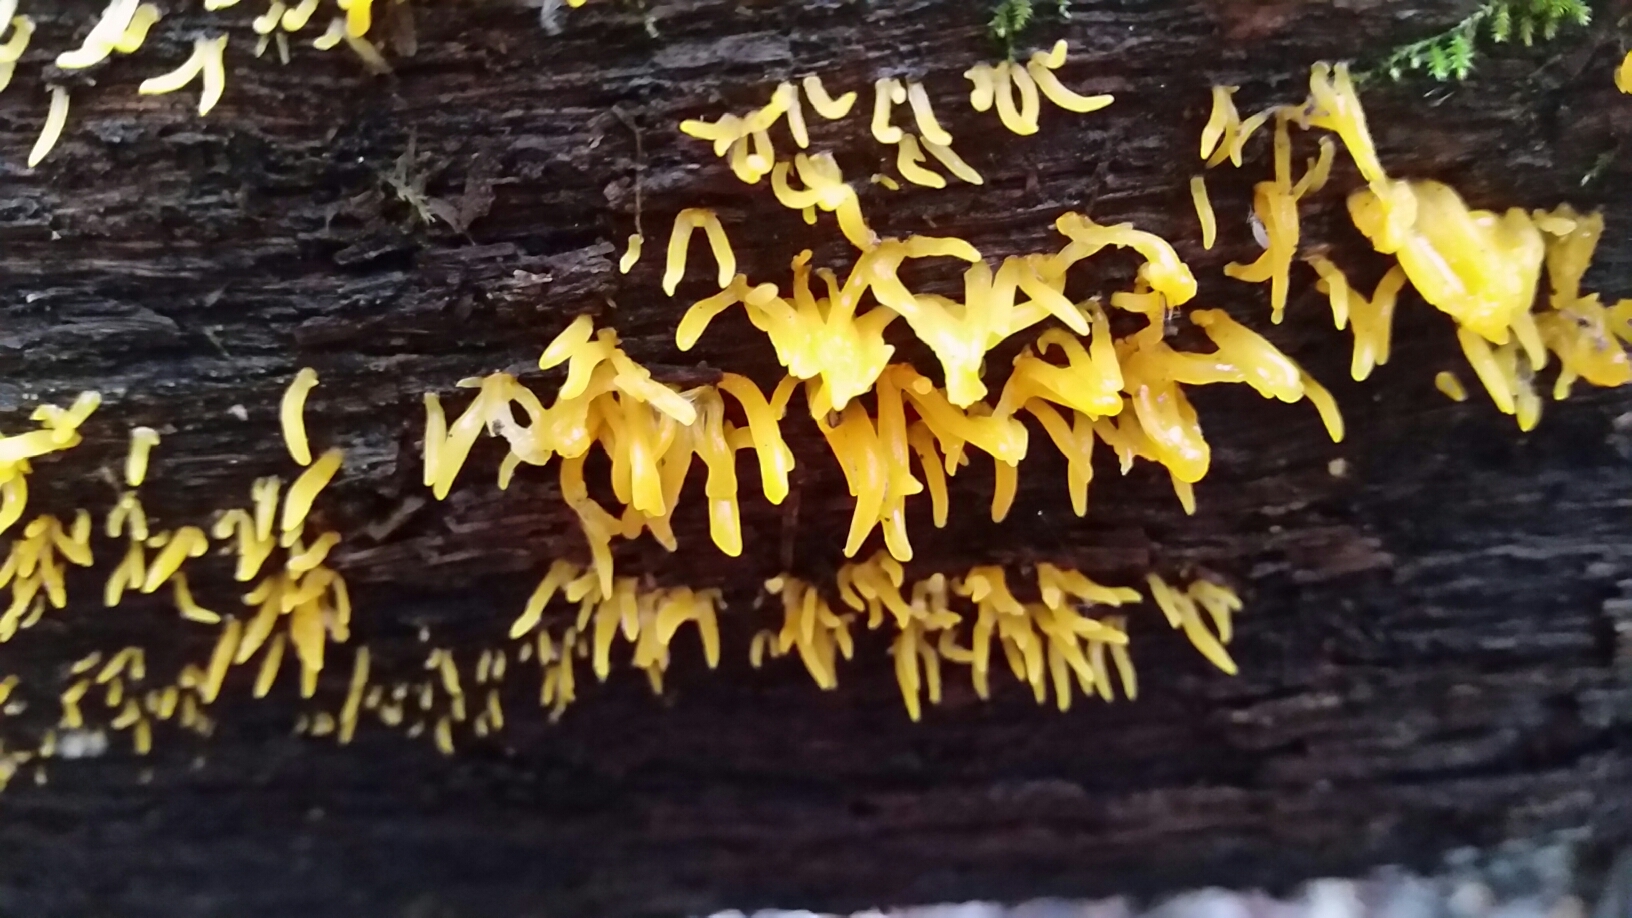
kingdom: Fungi
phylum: Basidiomycota
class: Dacrymycetes
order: Dacrymycetales
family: Dacrymycetaceae
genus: Calocera
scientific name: Calocera cornea
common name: Small stagshorn
